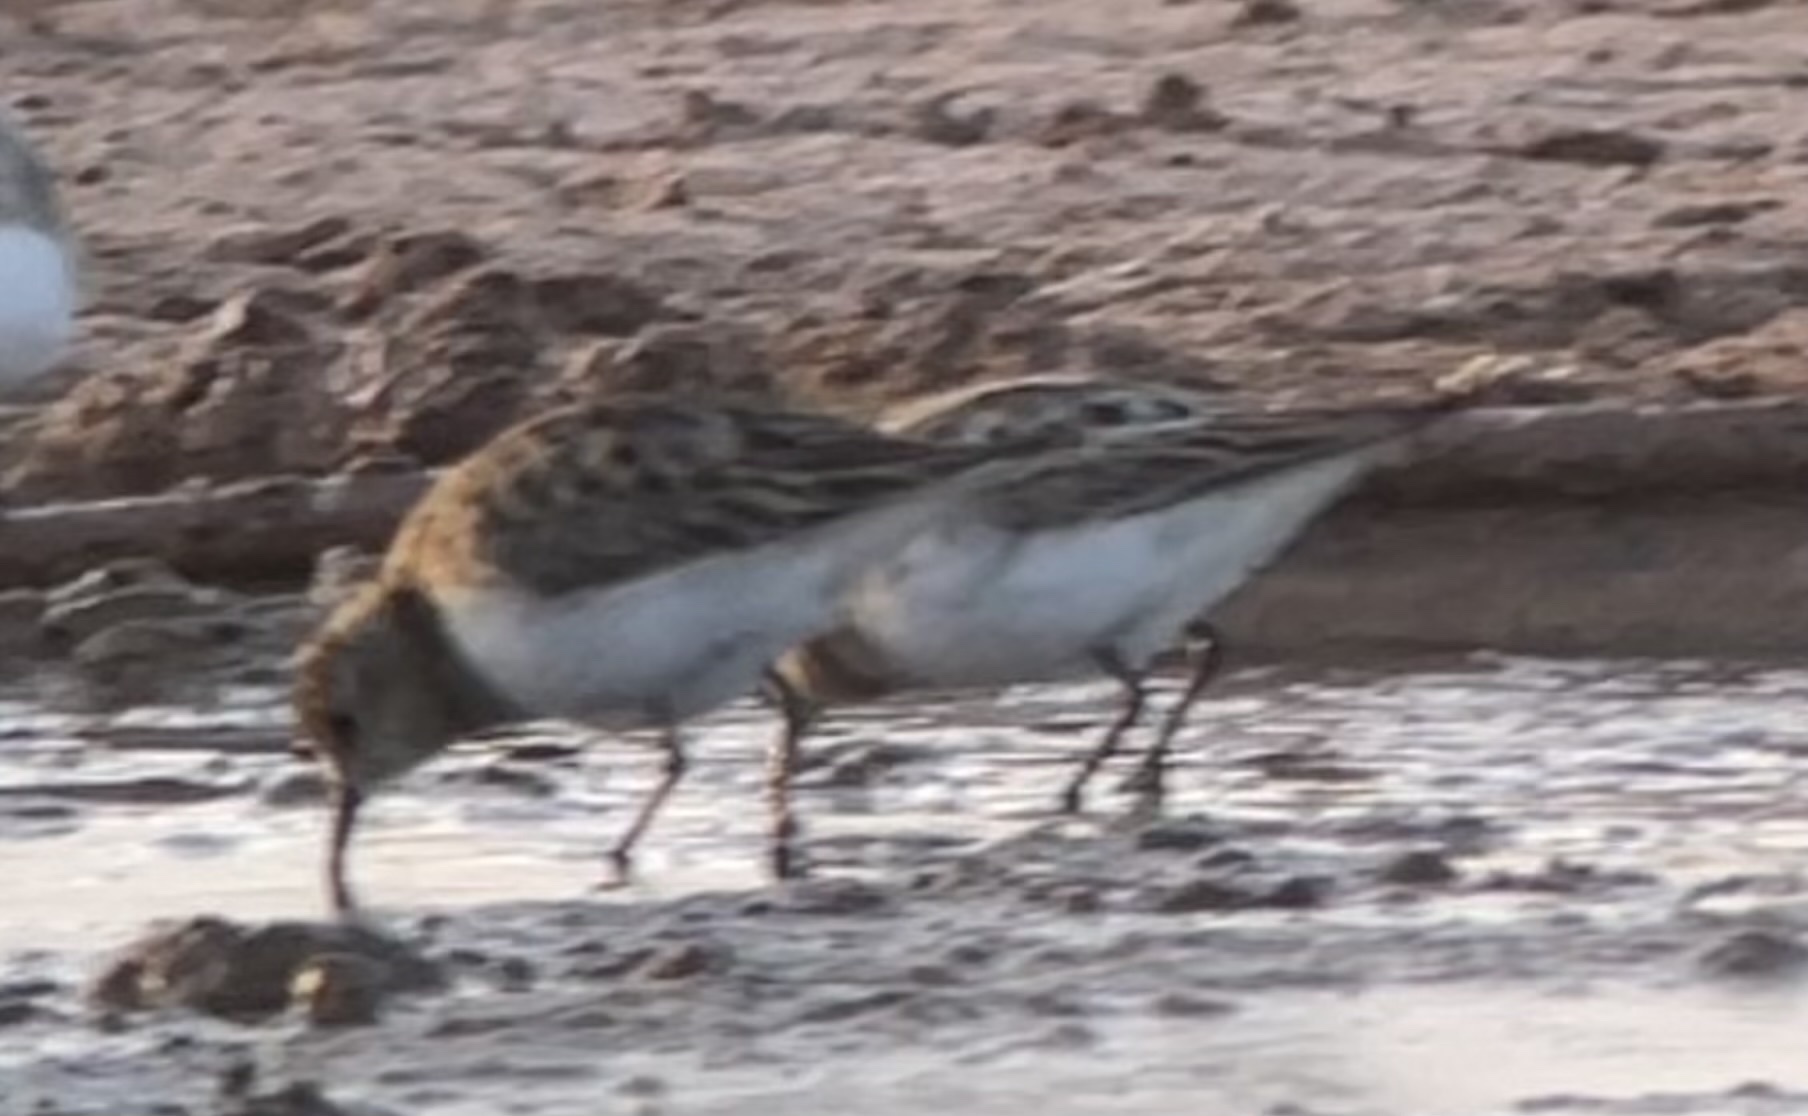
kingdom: Animalia
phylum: Chordata
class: Aves
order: Charadriiformes
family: Scolopacidae
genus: Calidris
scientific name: Calidris minuta
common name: Little stint
